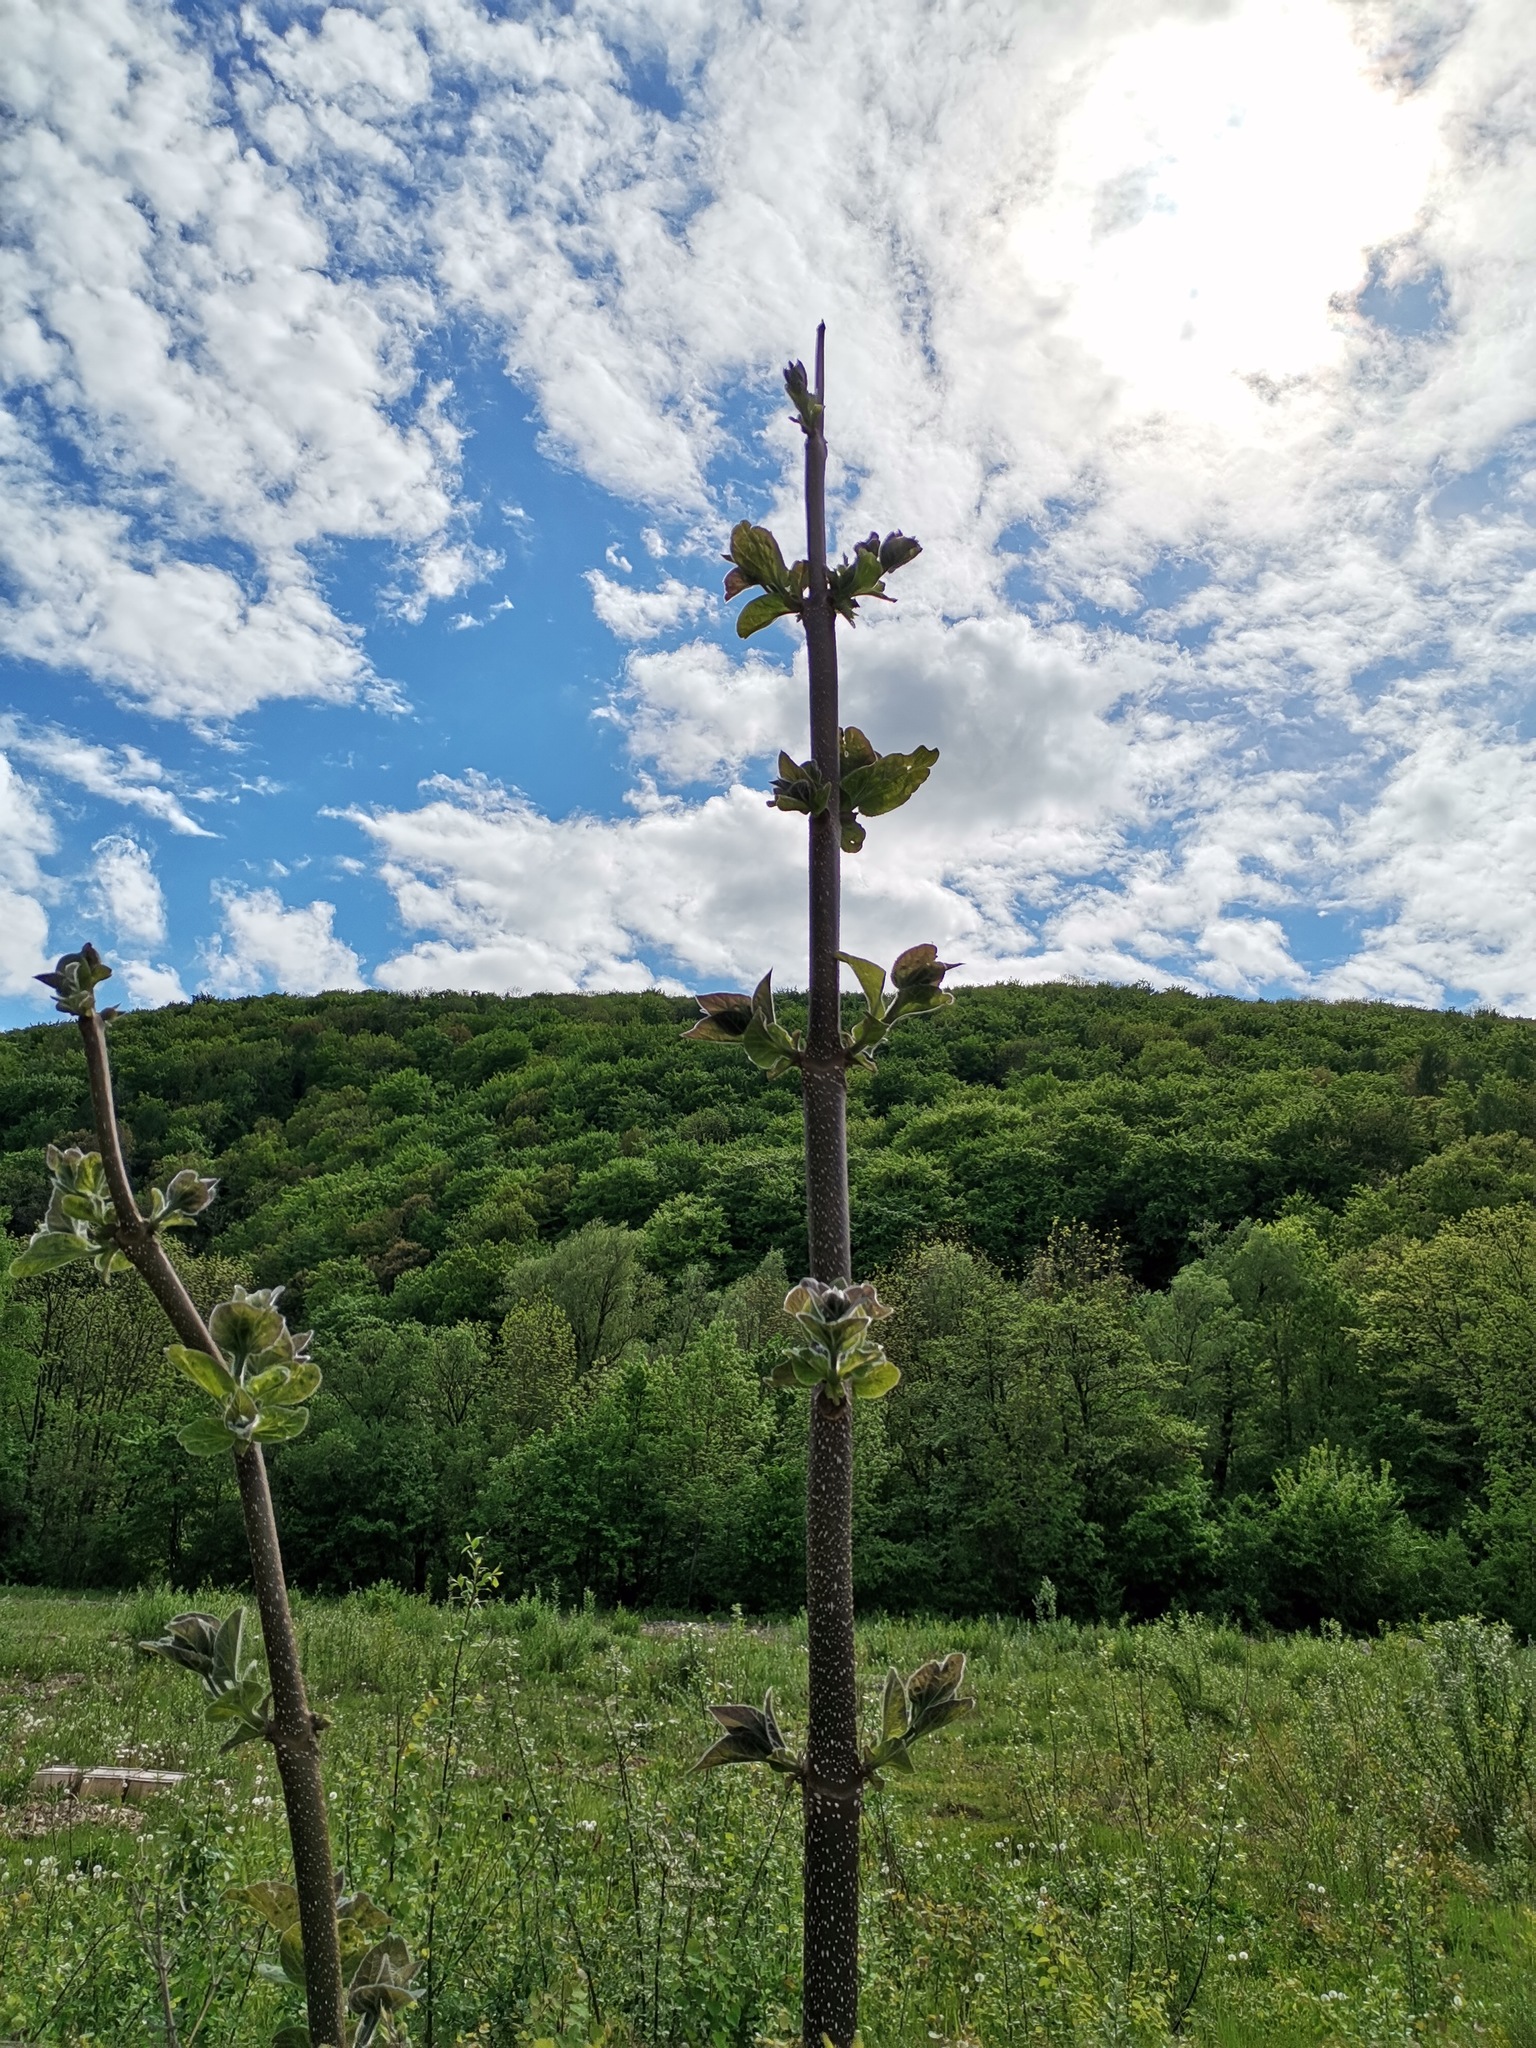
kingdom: Plantae
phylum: Tracheophyta
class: Magnoliopsida
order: Lamiales
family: Paulowniaceae
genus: Paulownia
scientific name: Paulownia tomentosa
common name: Foxglove-tree
